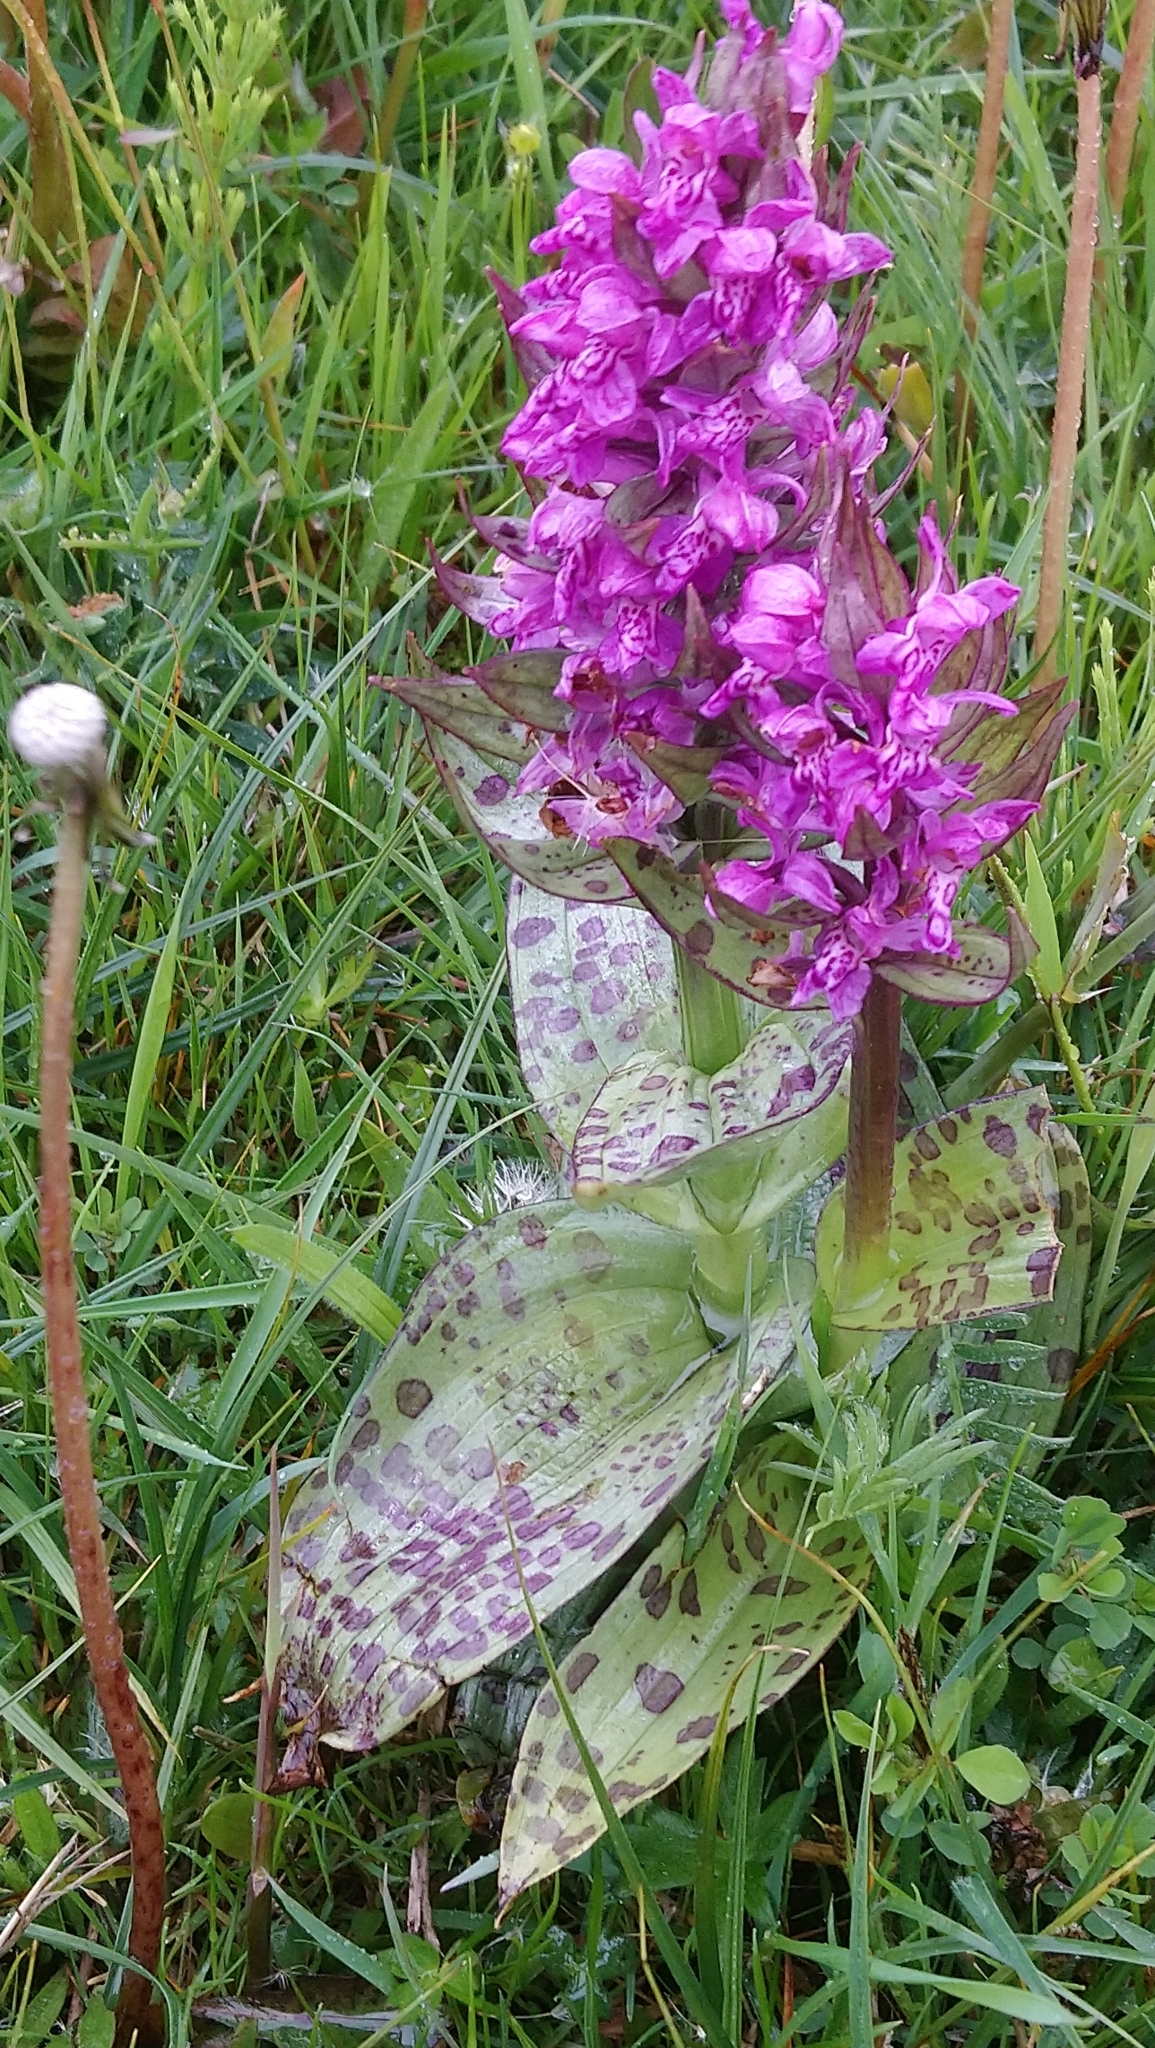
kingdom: Plantae
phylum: Tracheophyta
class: Liliopsida
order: Asparagales
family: Orchidaceae
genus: Dactylorhiza
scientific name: Dactylorhiza majalis
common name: Marsh orchid
